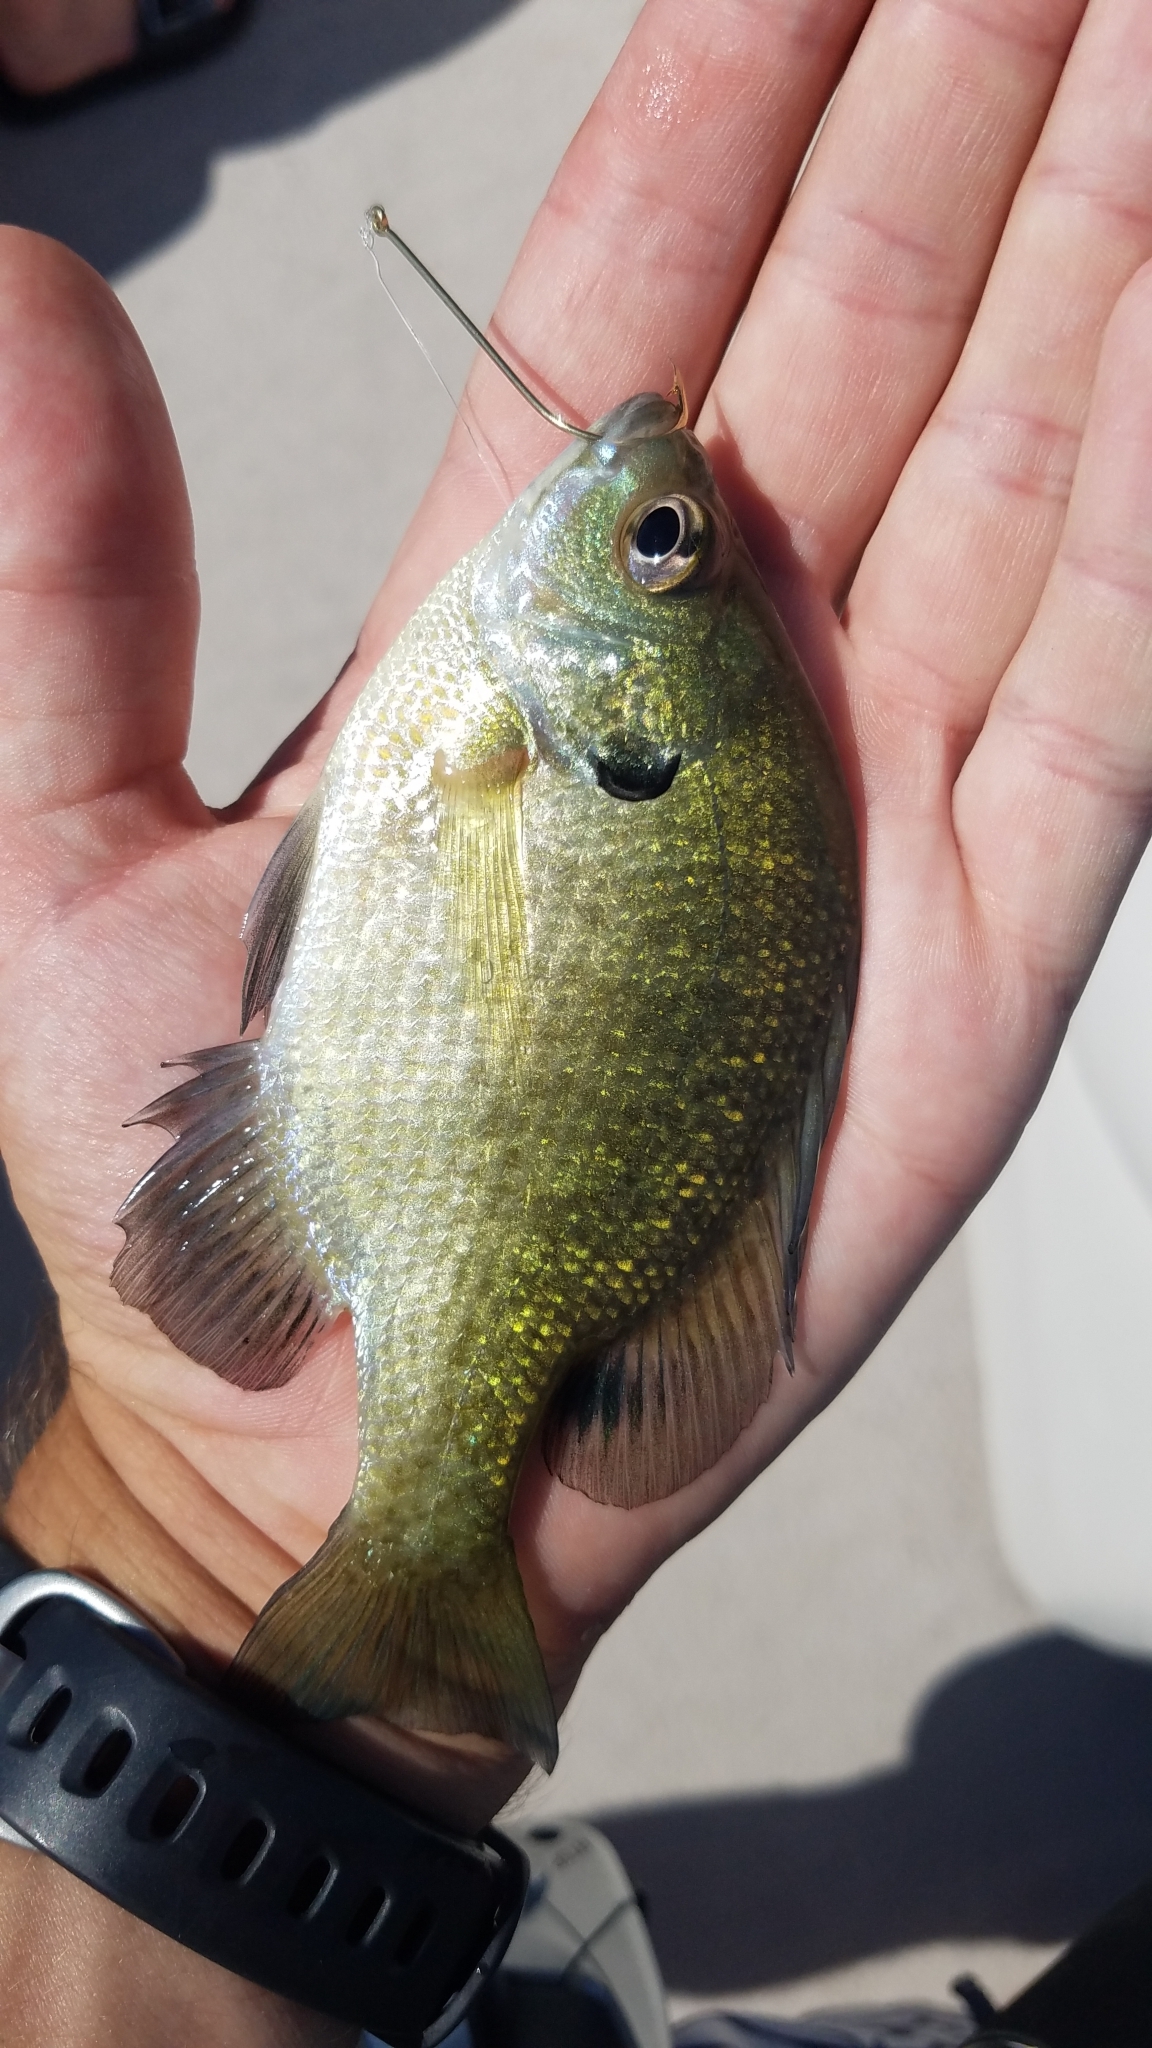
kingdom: Animalia
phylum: Chordata
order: Perciformes
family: Centrarchidae
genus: Lepomis
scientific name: Lepomis macrochirus
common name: Bluegill
